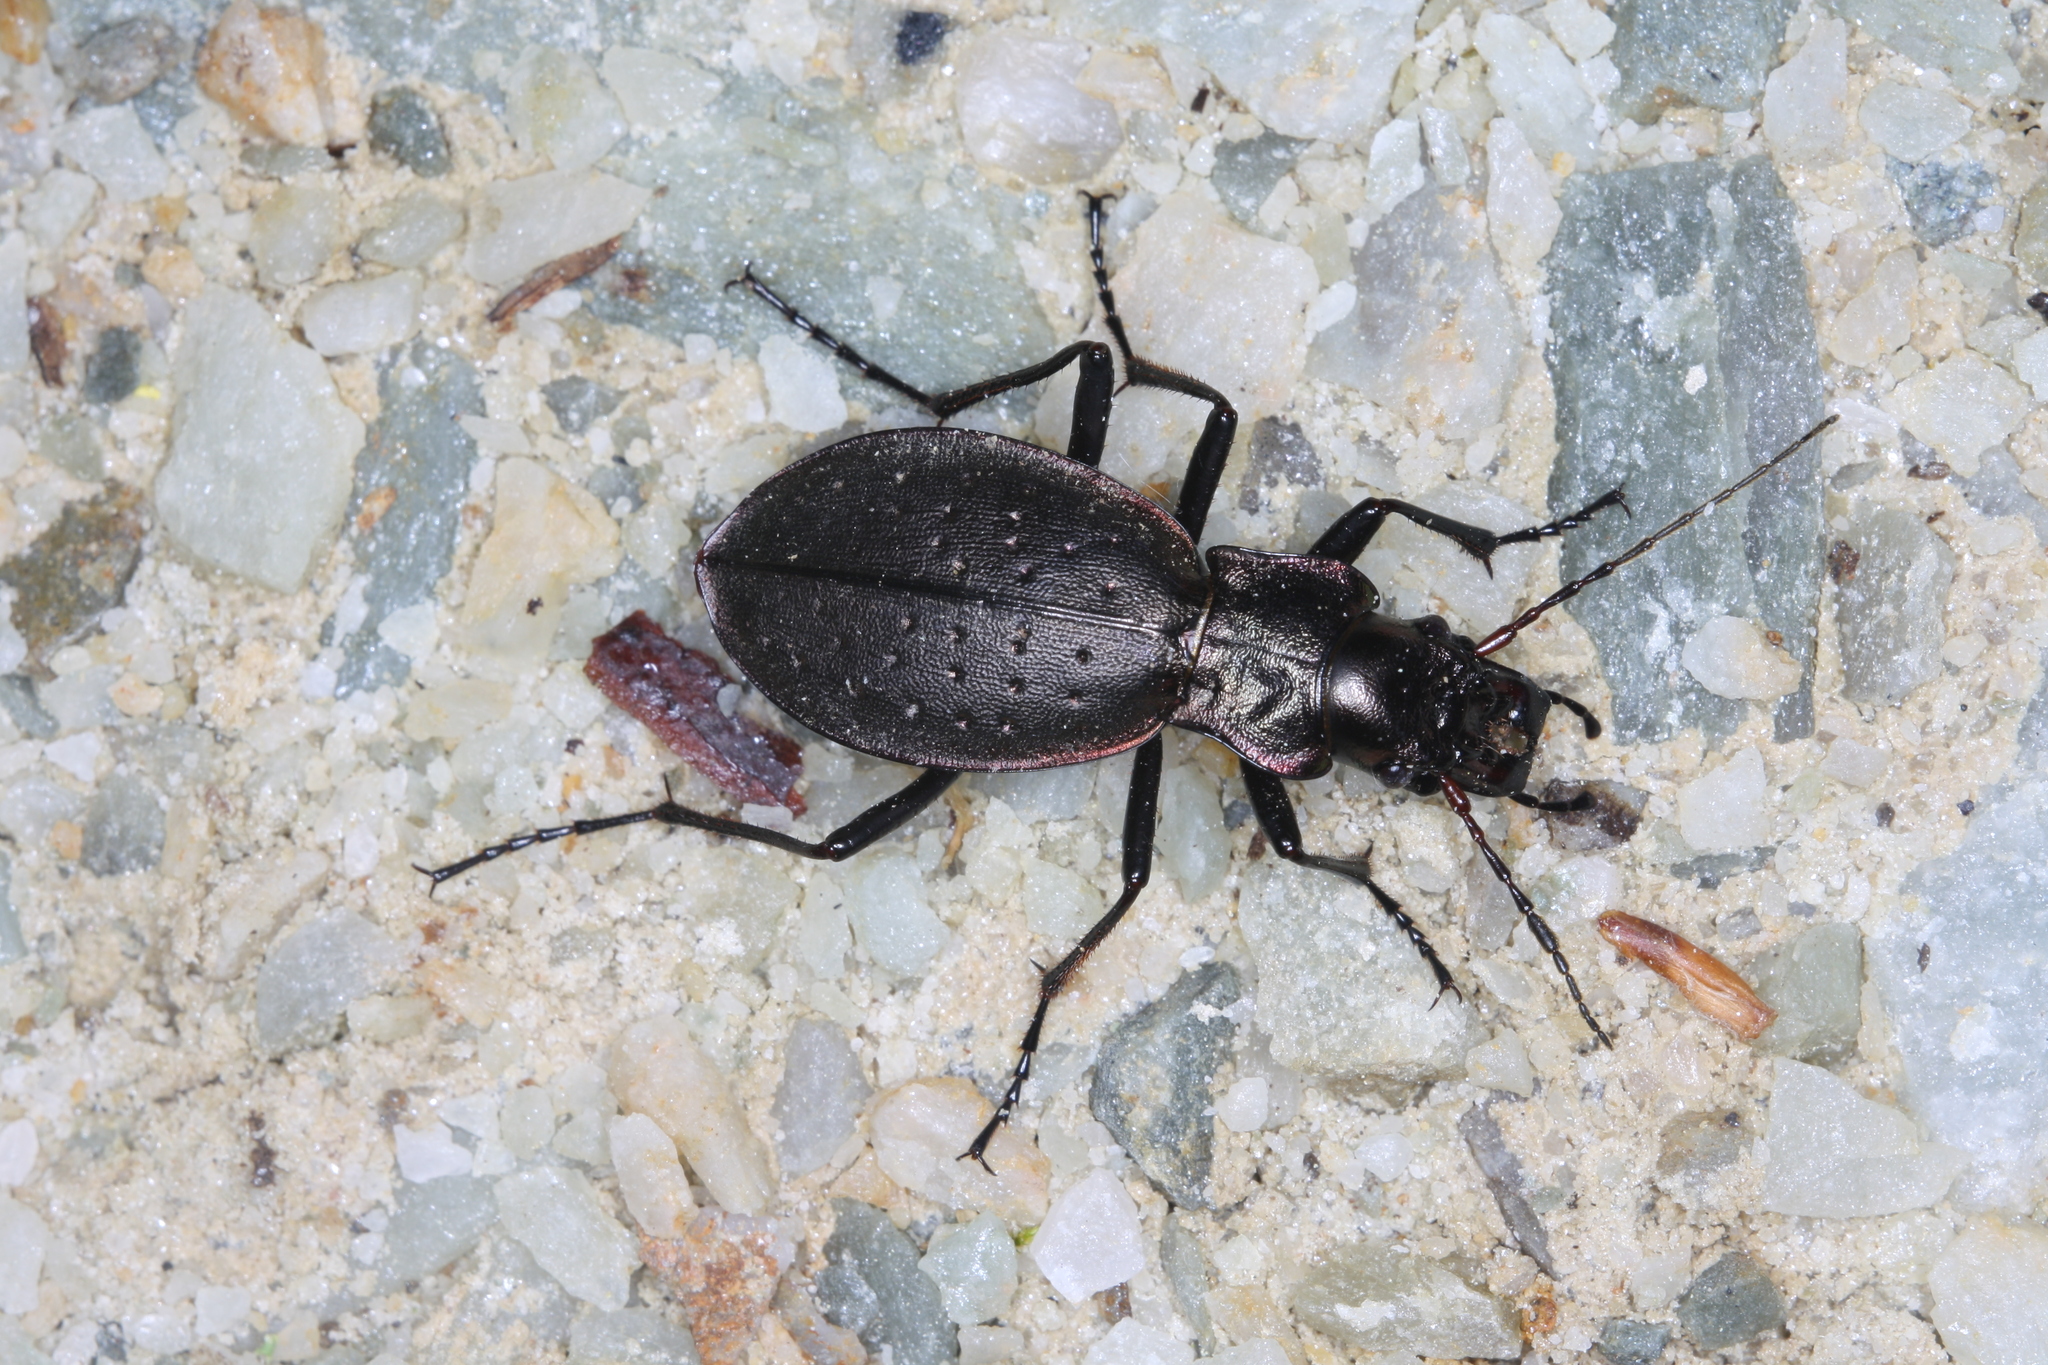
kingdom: Animalia
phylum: Arthropoda
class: Insecta
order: Coleoptera
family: Carabidae
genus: Carabus
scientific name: Carabus irregularis
